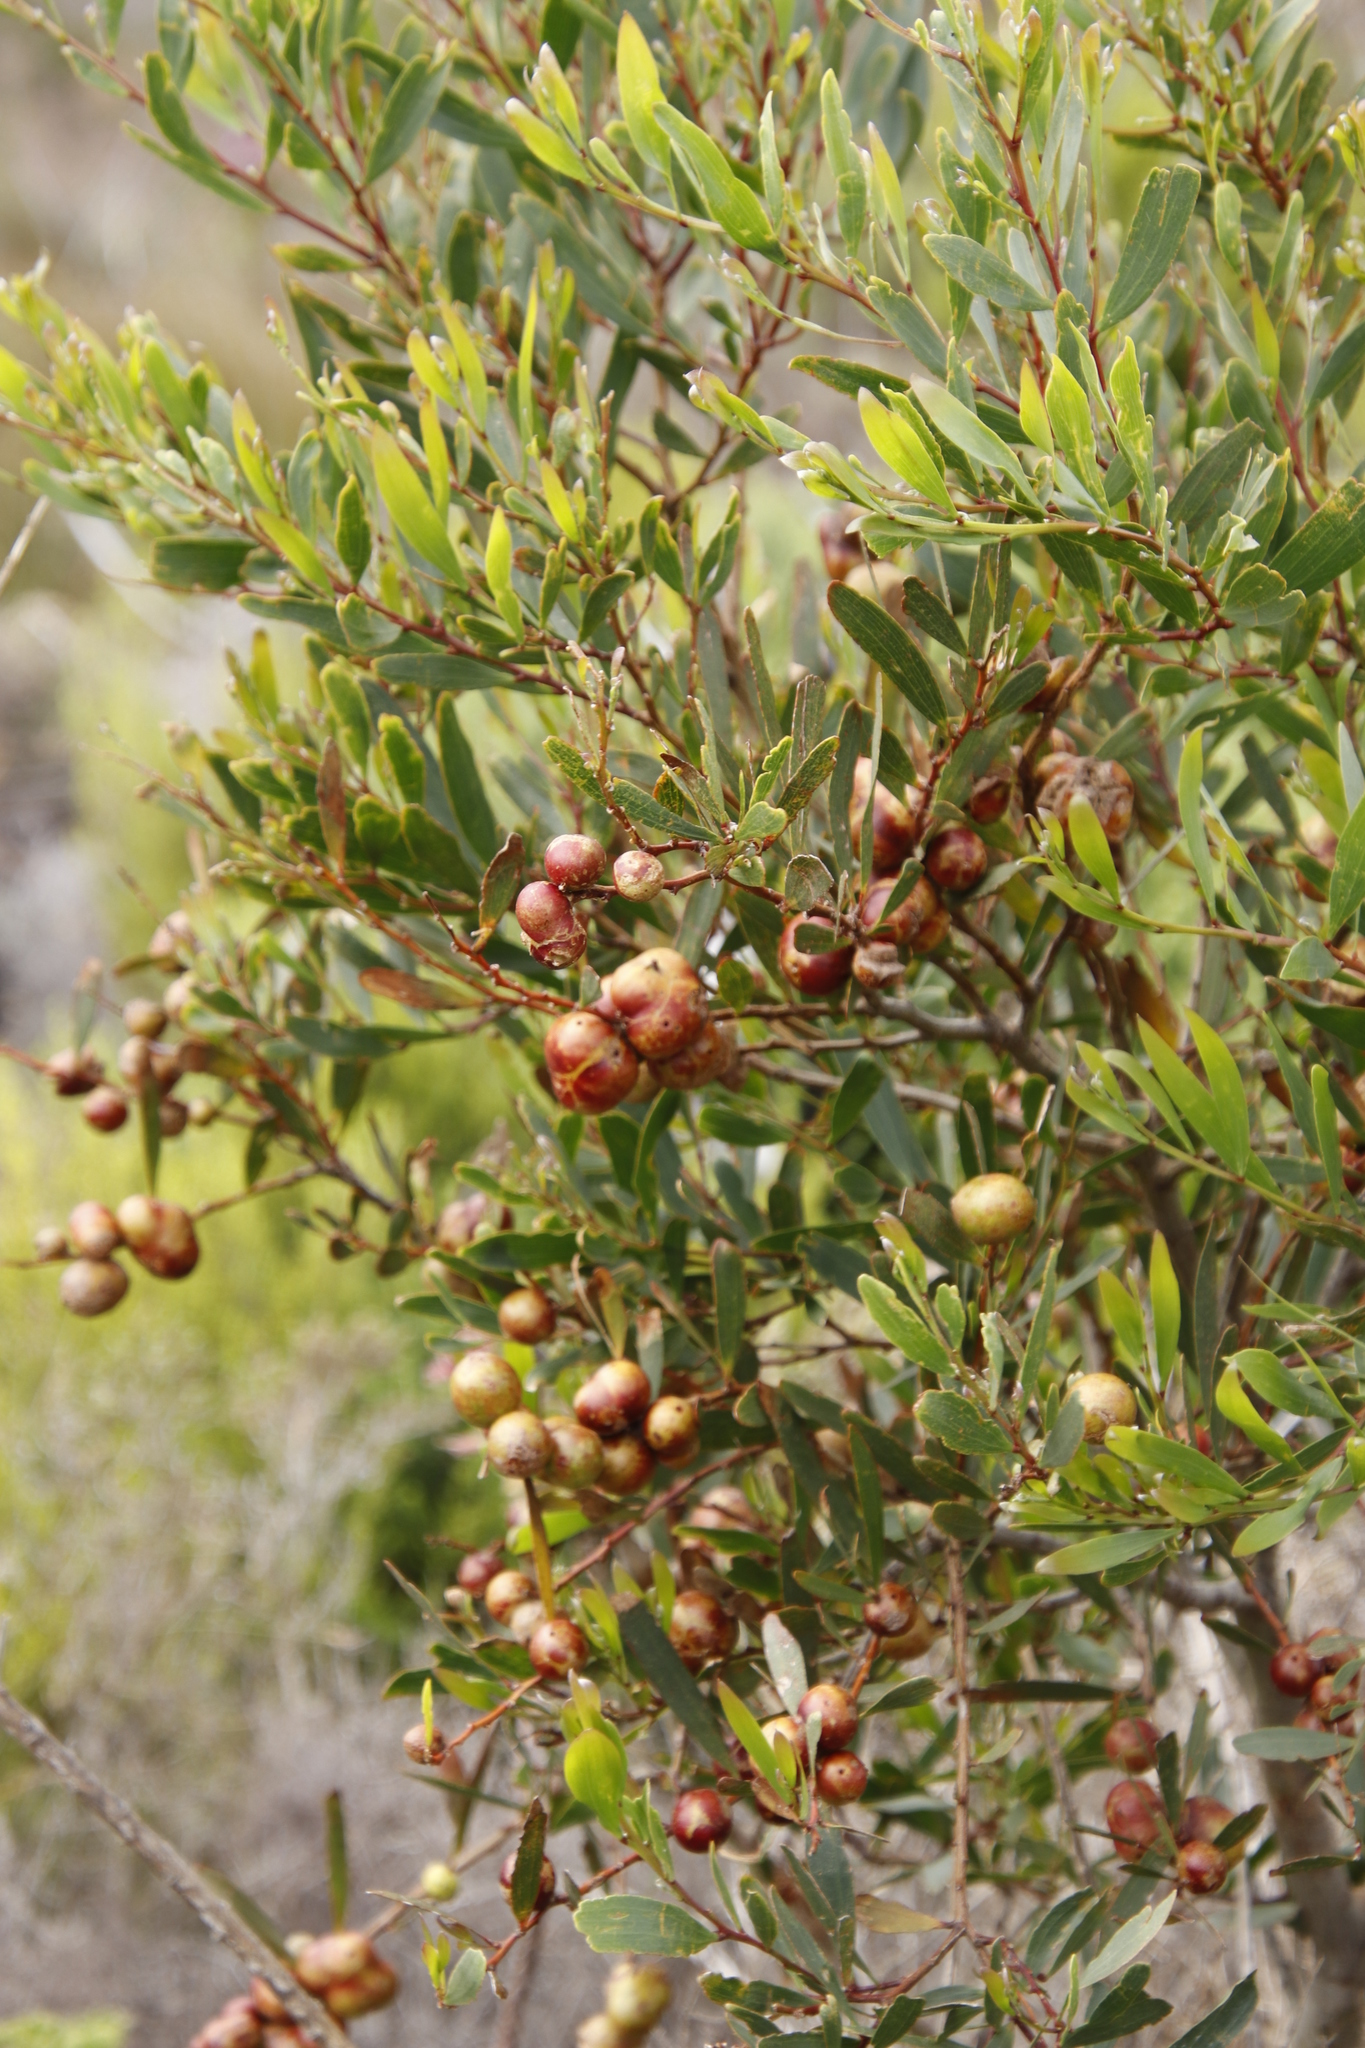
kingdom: Animalia
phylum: Arthropoda
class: Insecta
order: Hymenoptera
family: Pteromalidae
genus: Trichilogaster
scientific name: Trichilogaster acaciaelongifoliae
